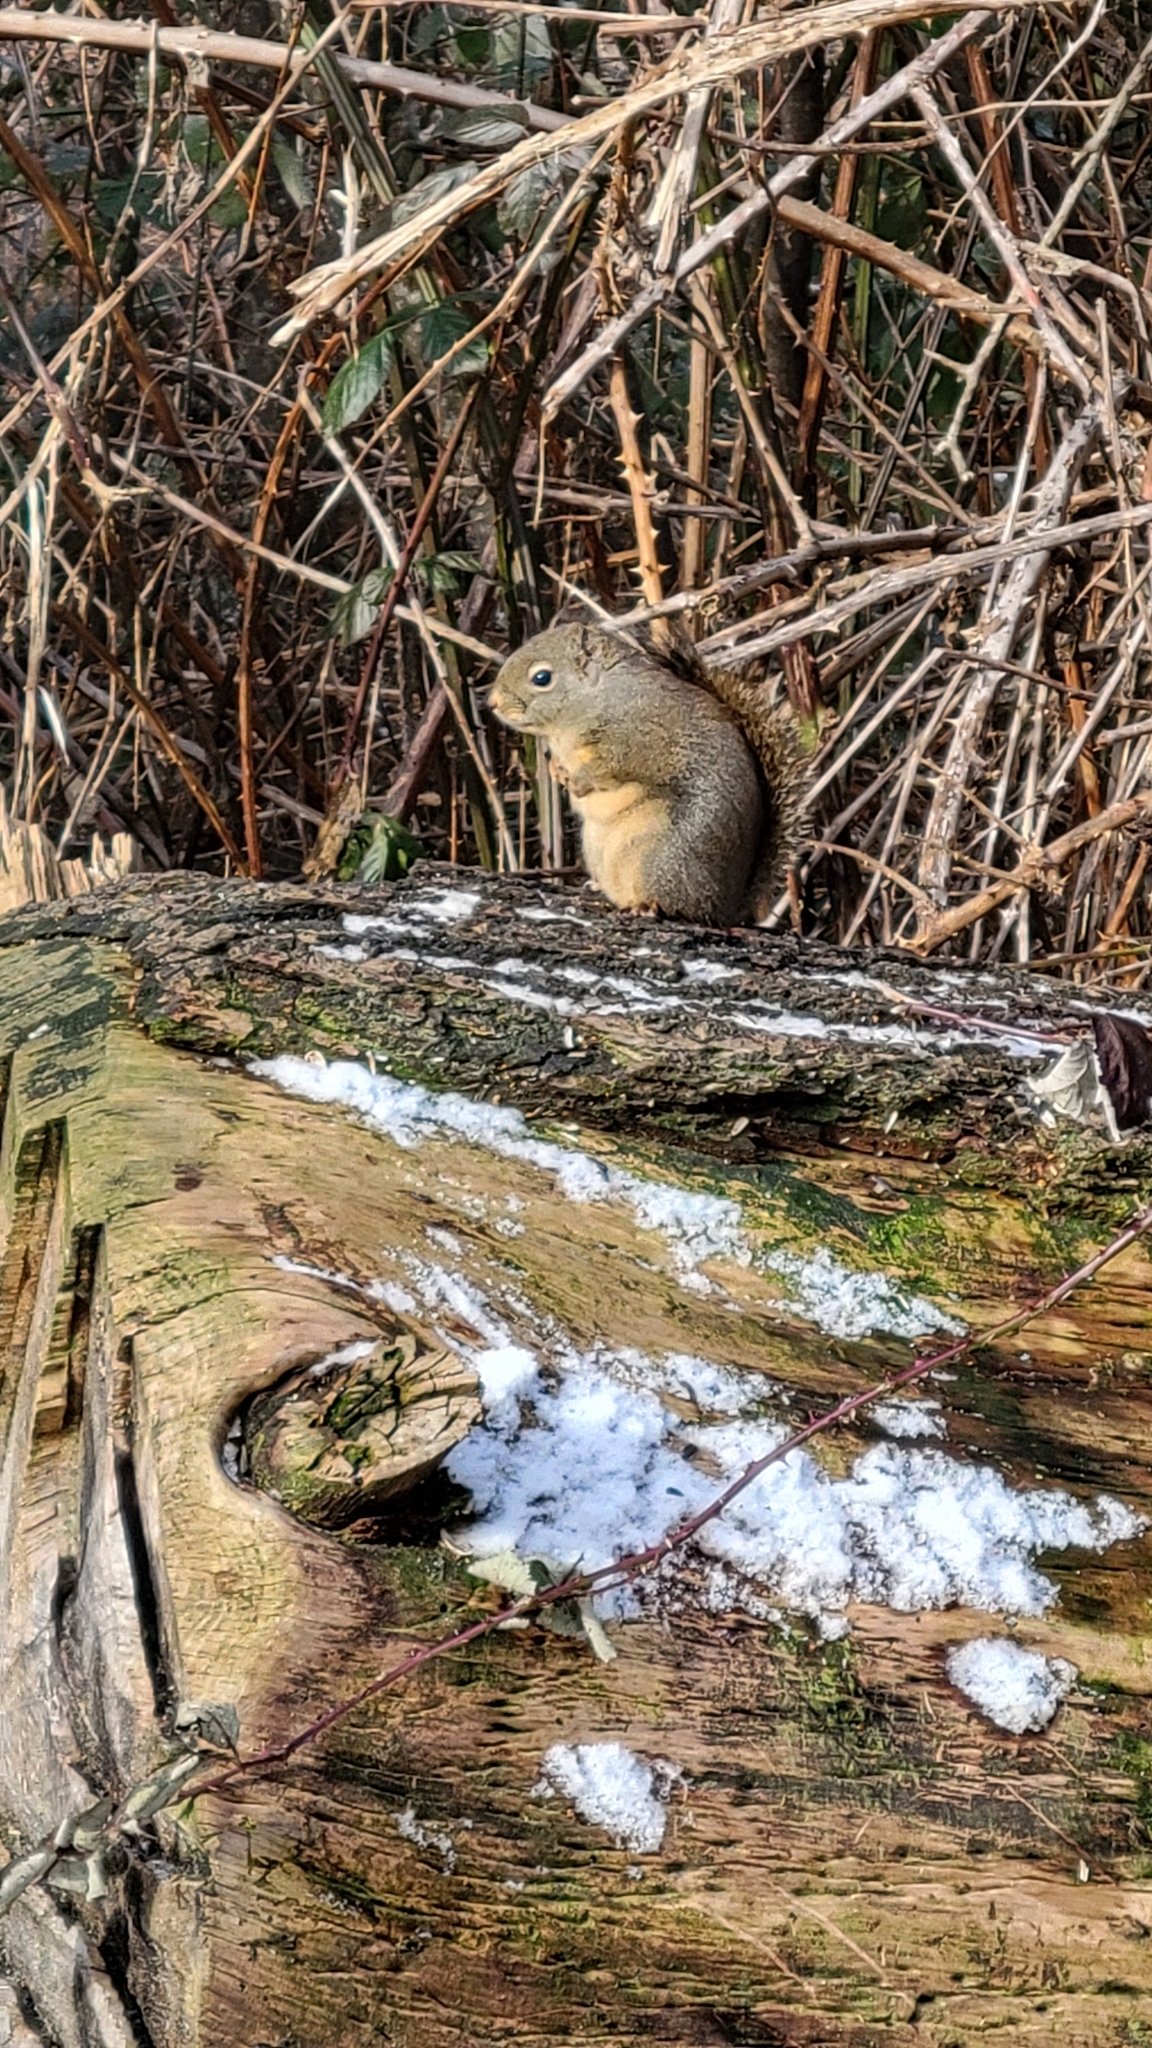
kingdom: Animalia
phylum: Chordata
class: Mammalia
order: Rodentia
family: Sciuridae
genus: Tamiasciurus
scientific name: Tamiasciurus douglasii
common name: Douglas's squirrel
